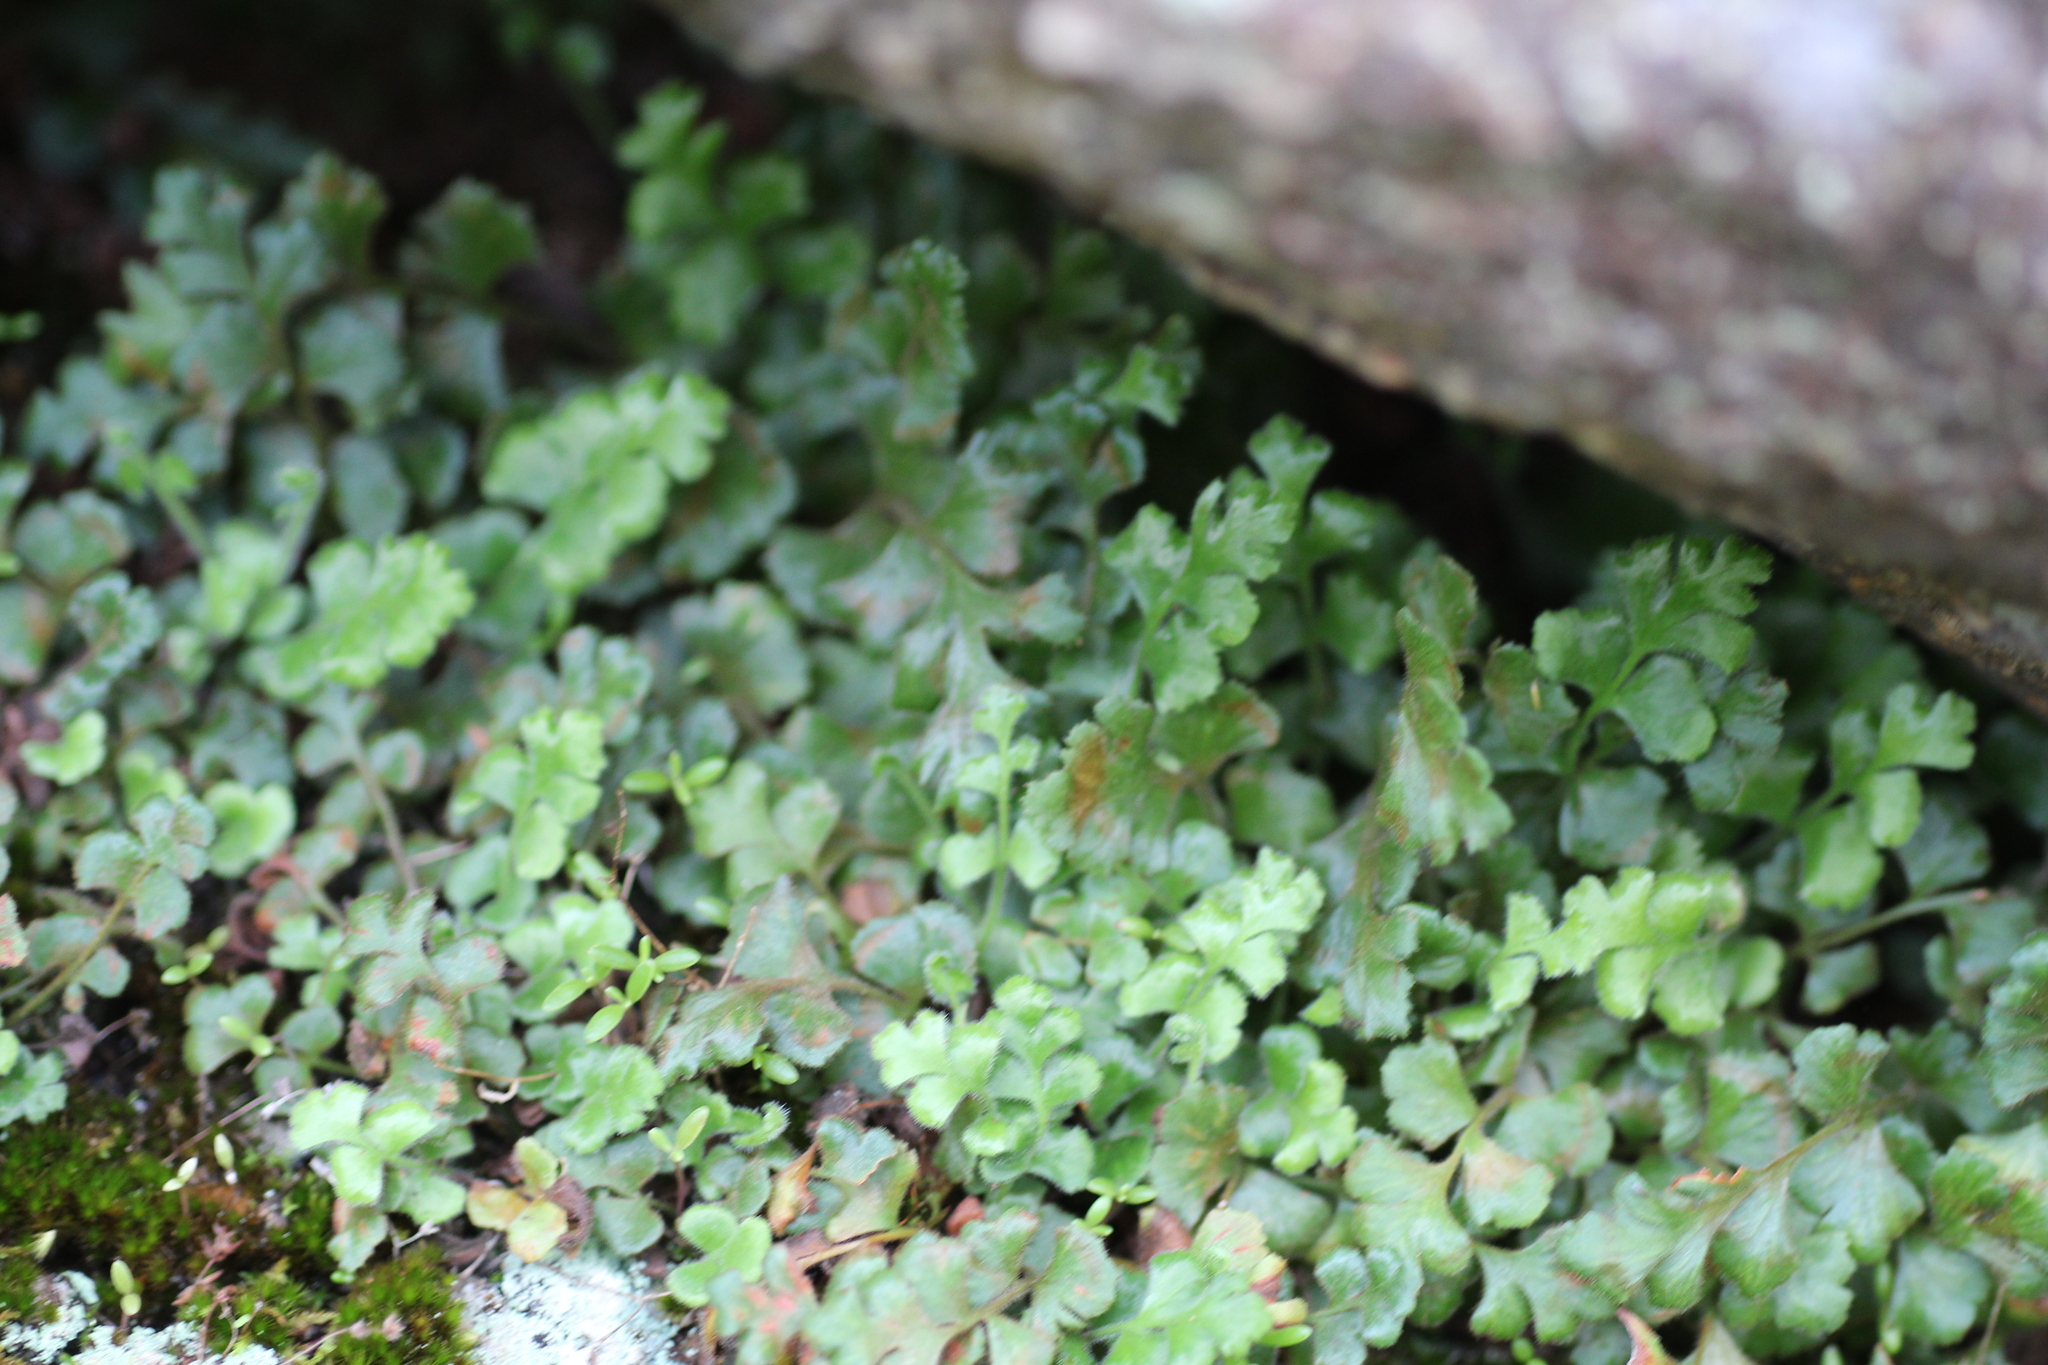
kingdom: Plantae
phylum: Tracheophyta
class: Polypodiopsida
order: Polypodiales
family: Aspleniaceae
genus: Asplenium
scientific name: Asplenium subglandulosum
